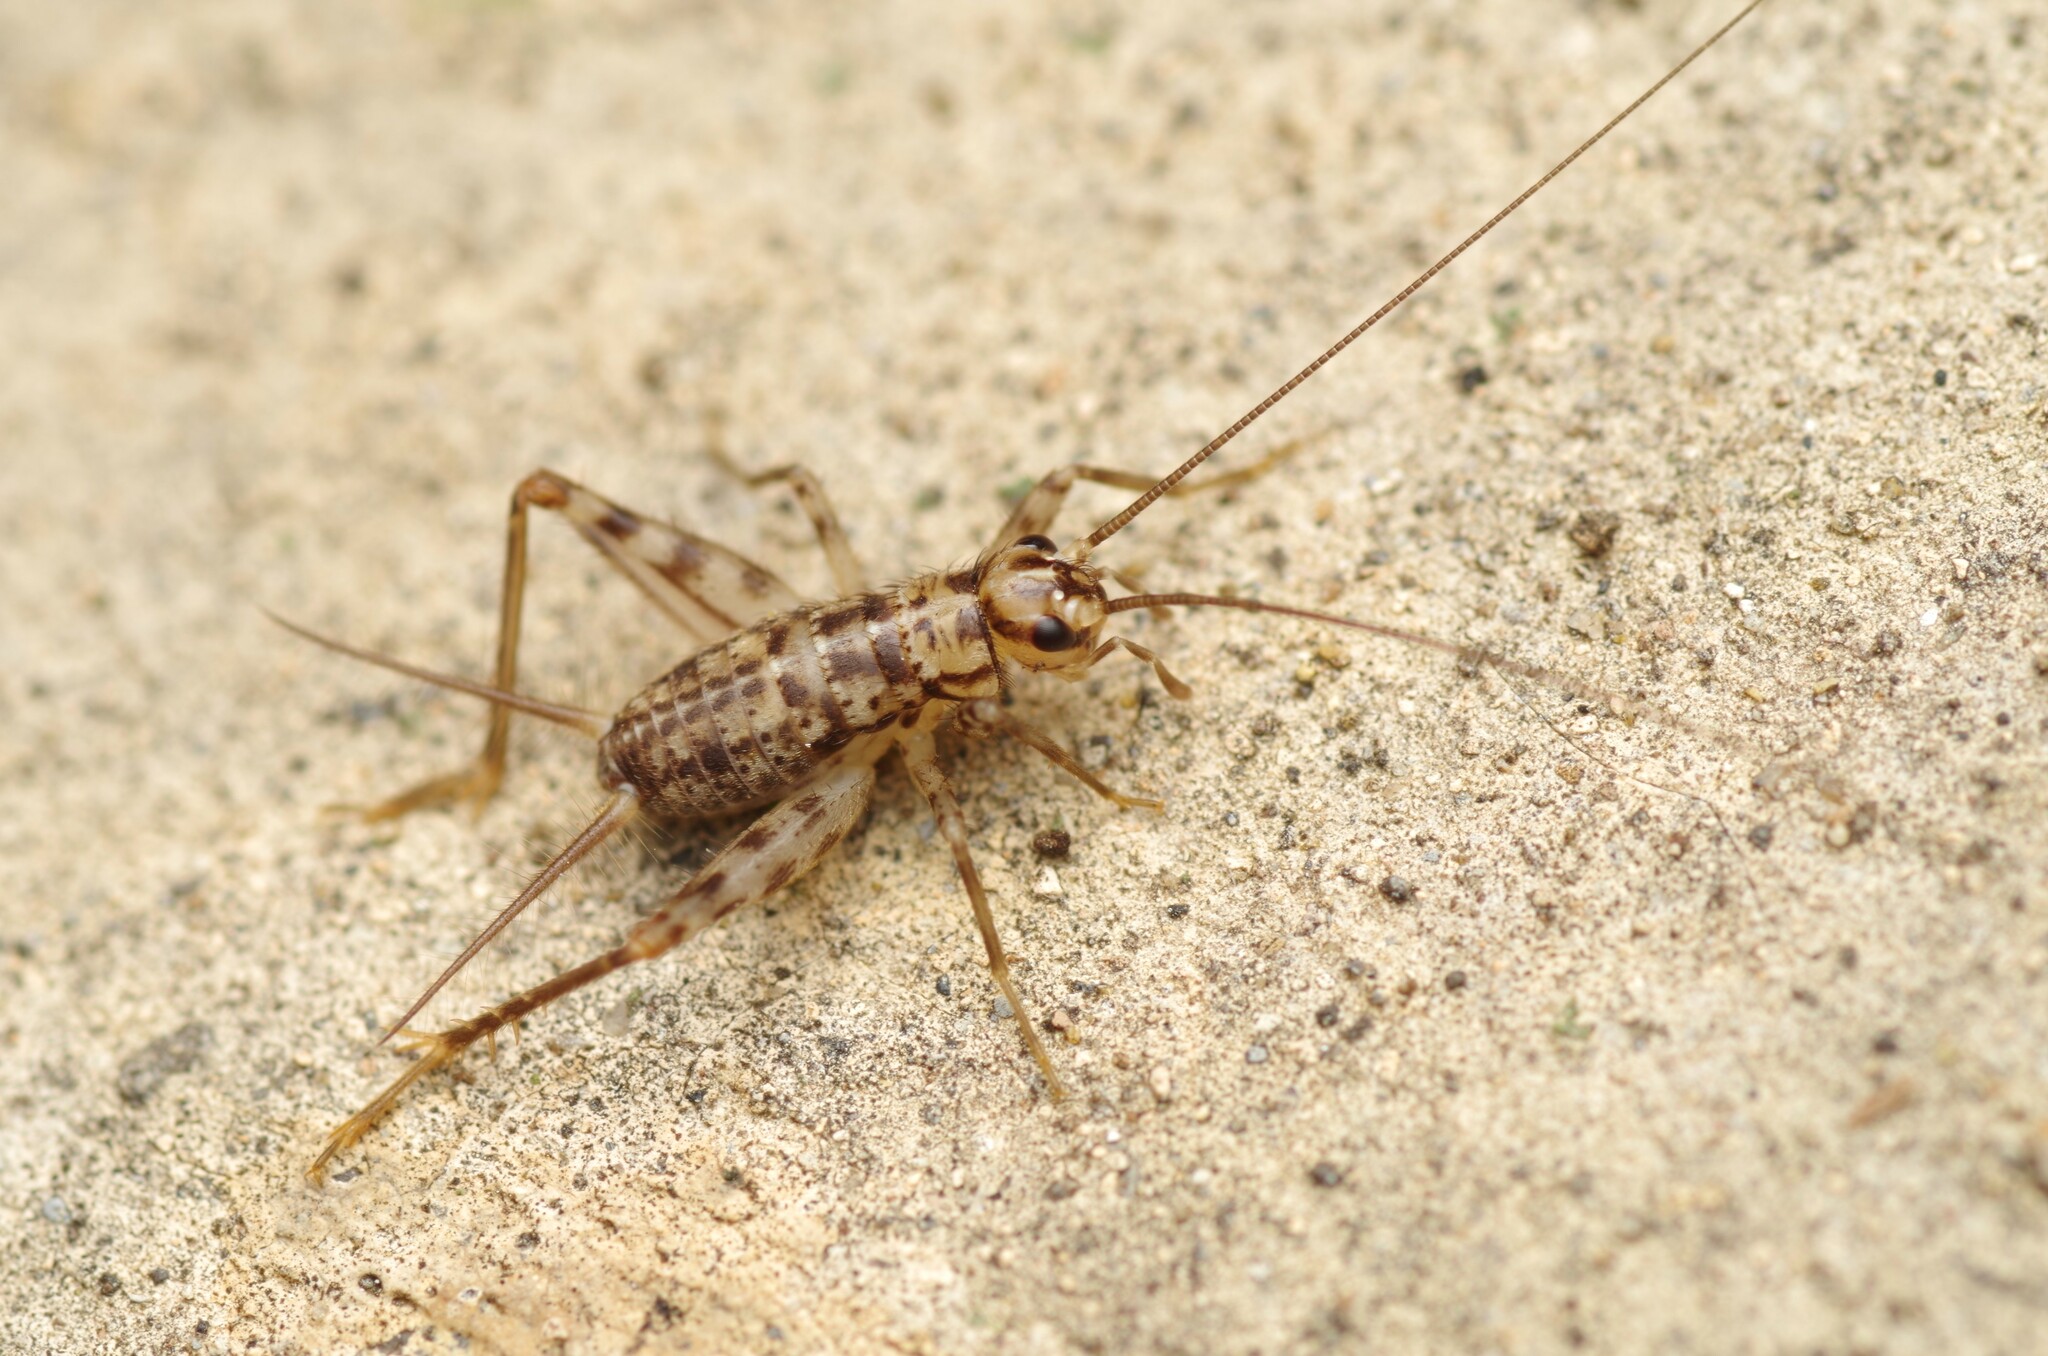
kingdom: Animalia
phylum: Arthropoda
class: Insecta
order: Orthoptera
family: Gryllidae
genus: Gryllomorpha
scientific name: Gryllomorpha dalmatina
